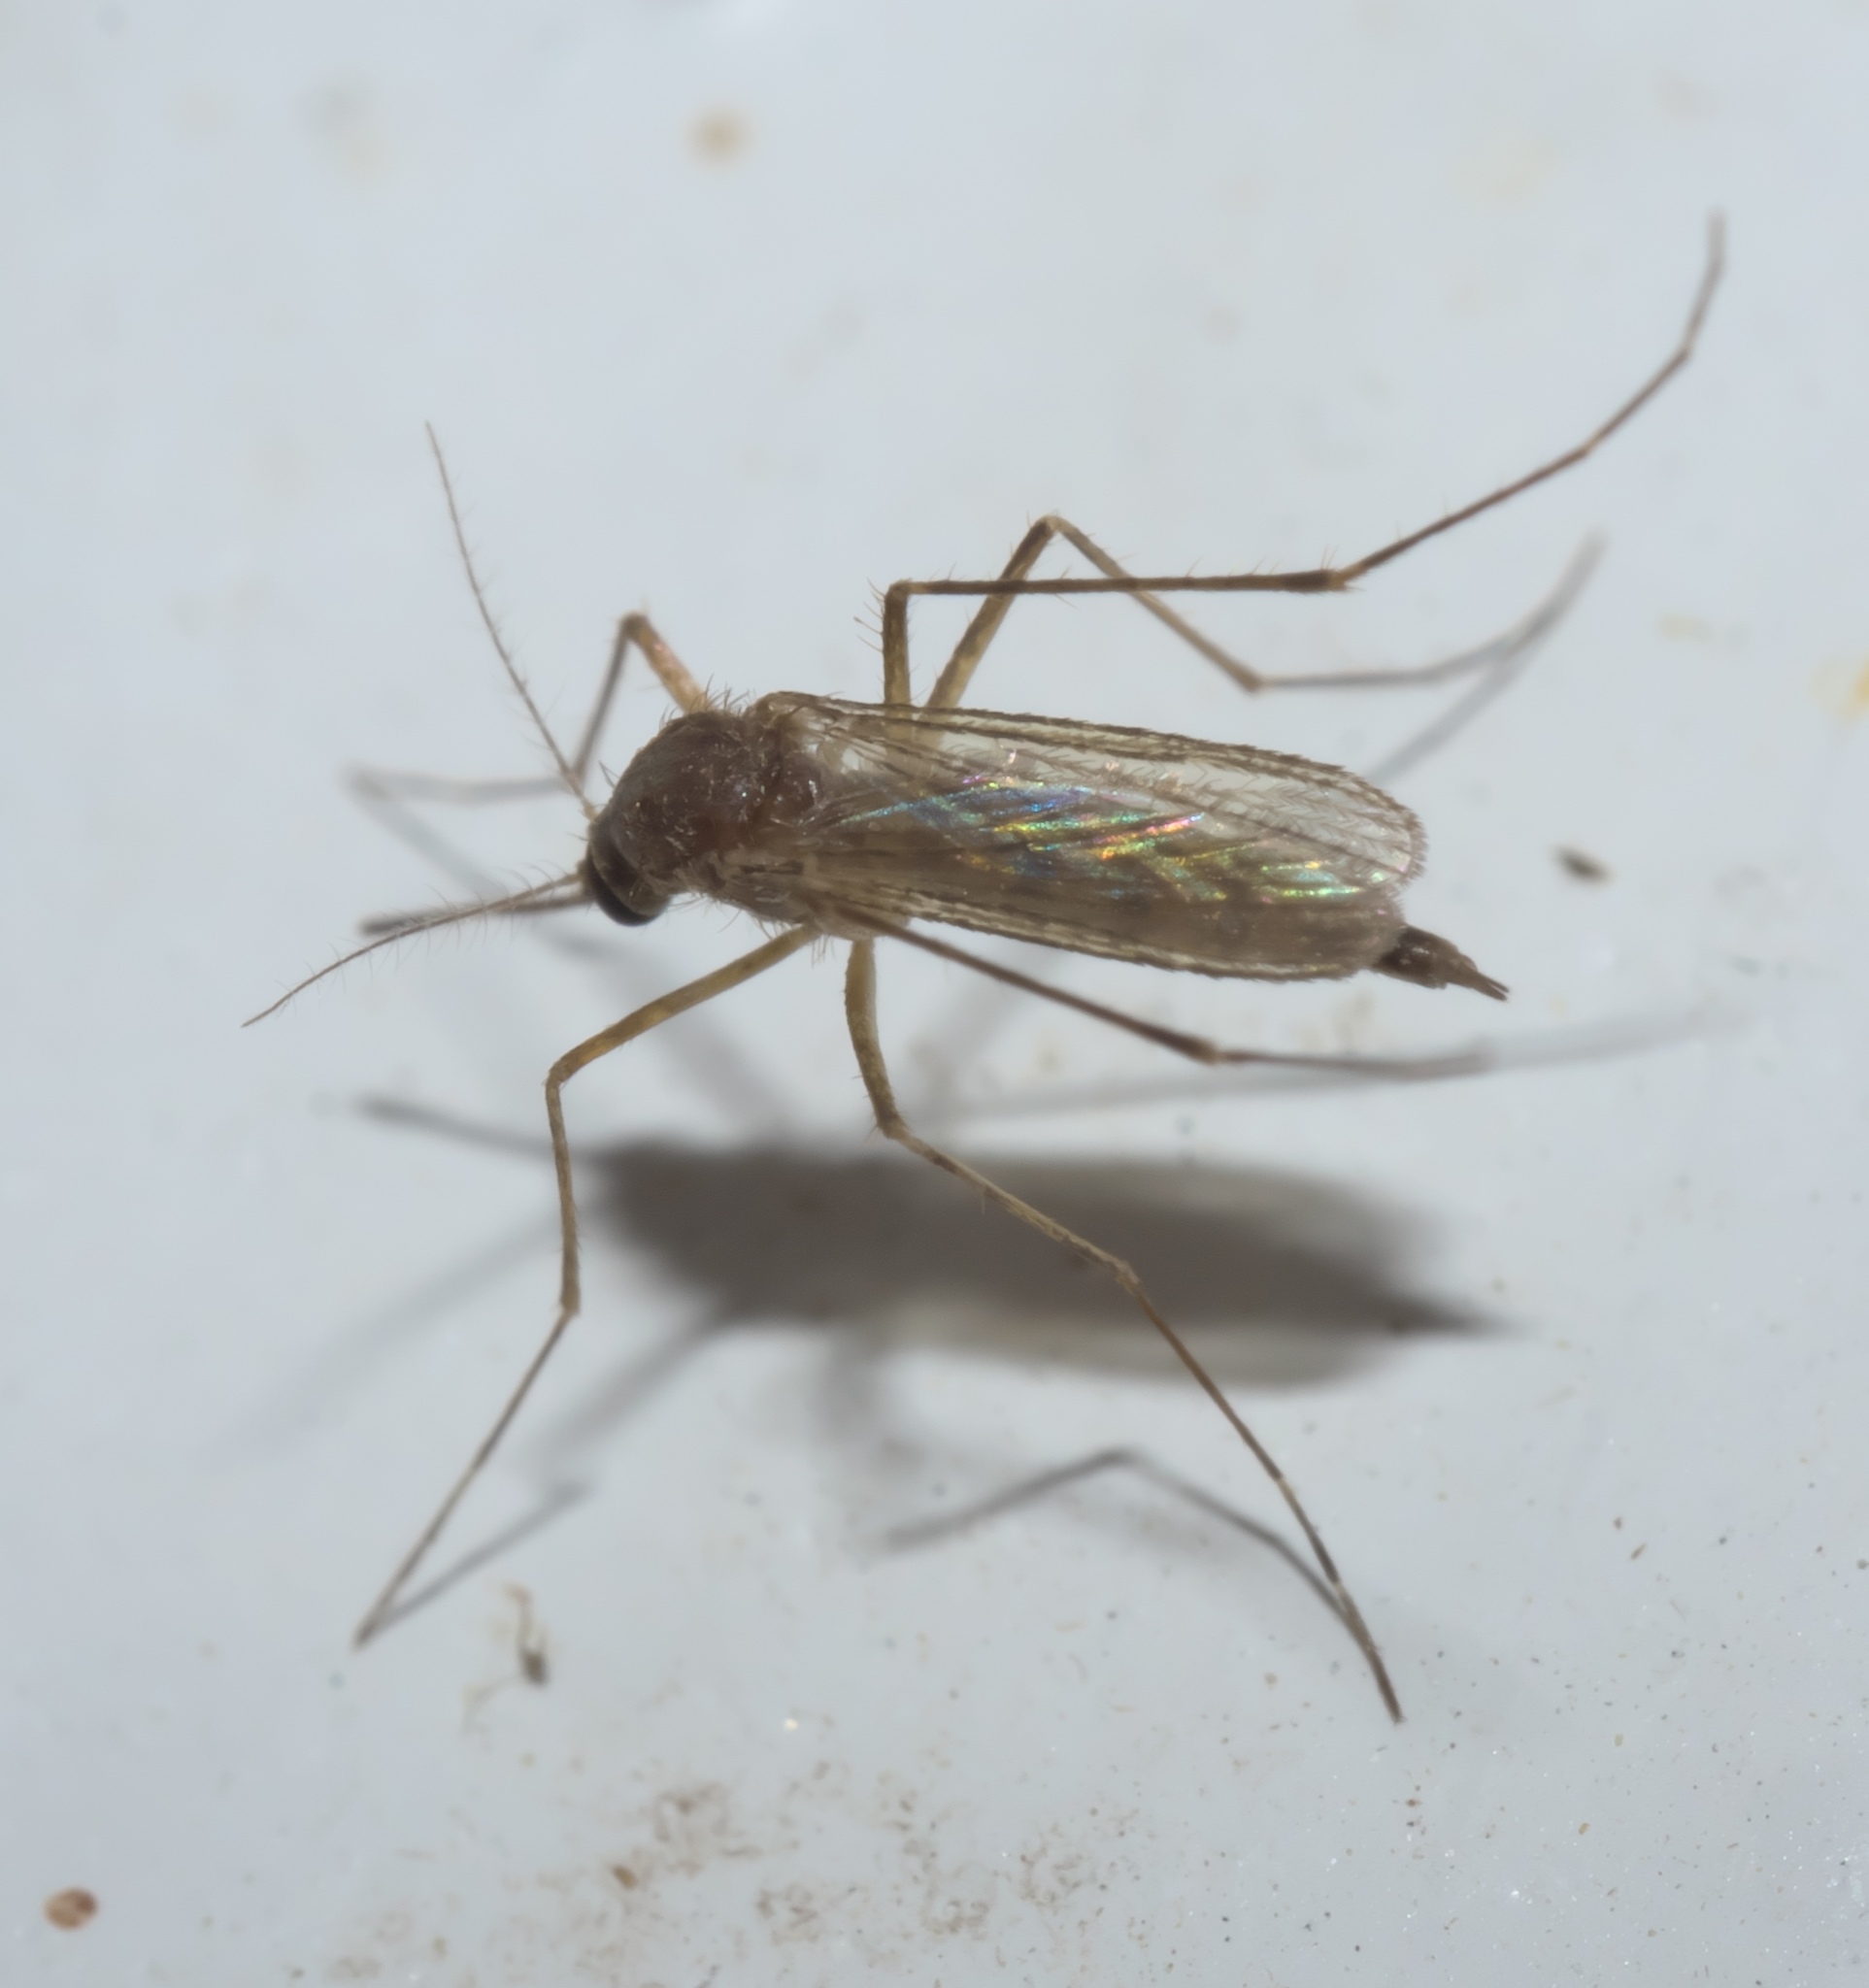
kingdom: Animalia
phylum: Arthropoda
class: Insecta
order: Diptera
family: Culicidae
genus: Aedes
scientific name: Aedes vexans
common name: Inland floodwater mosquito
